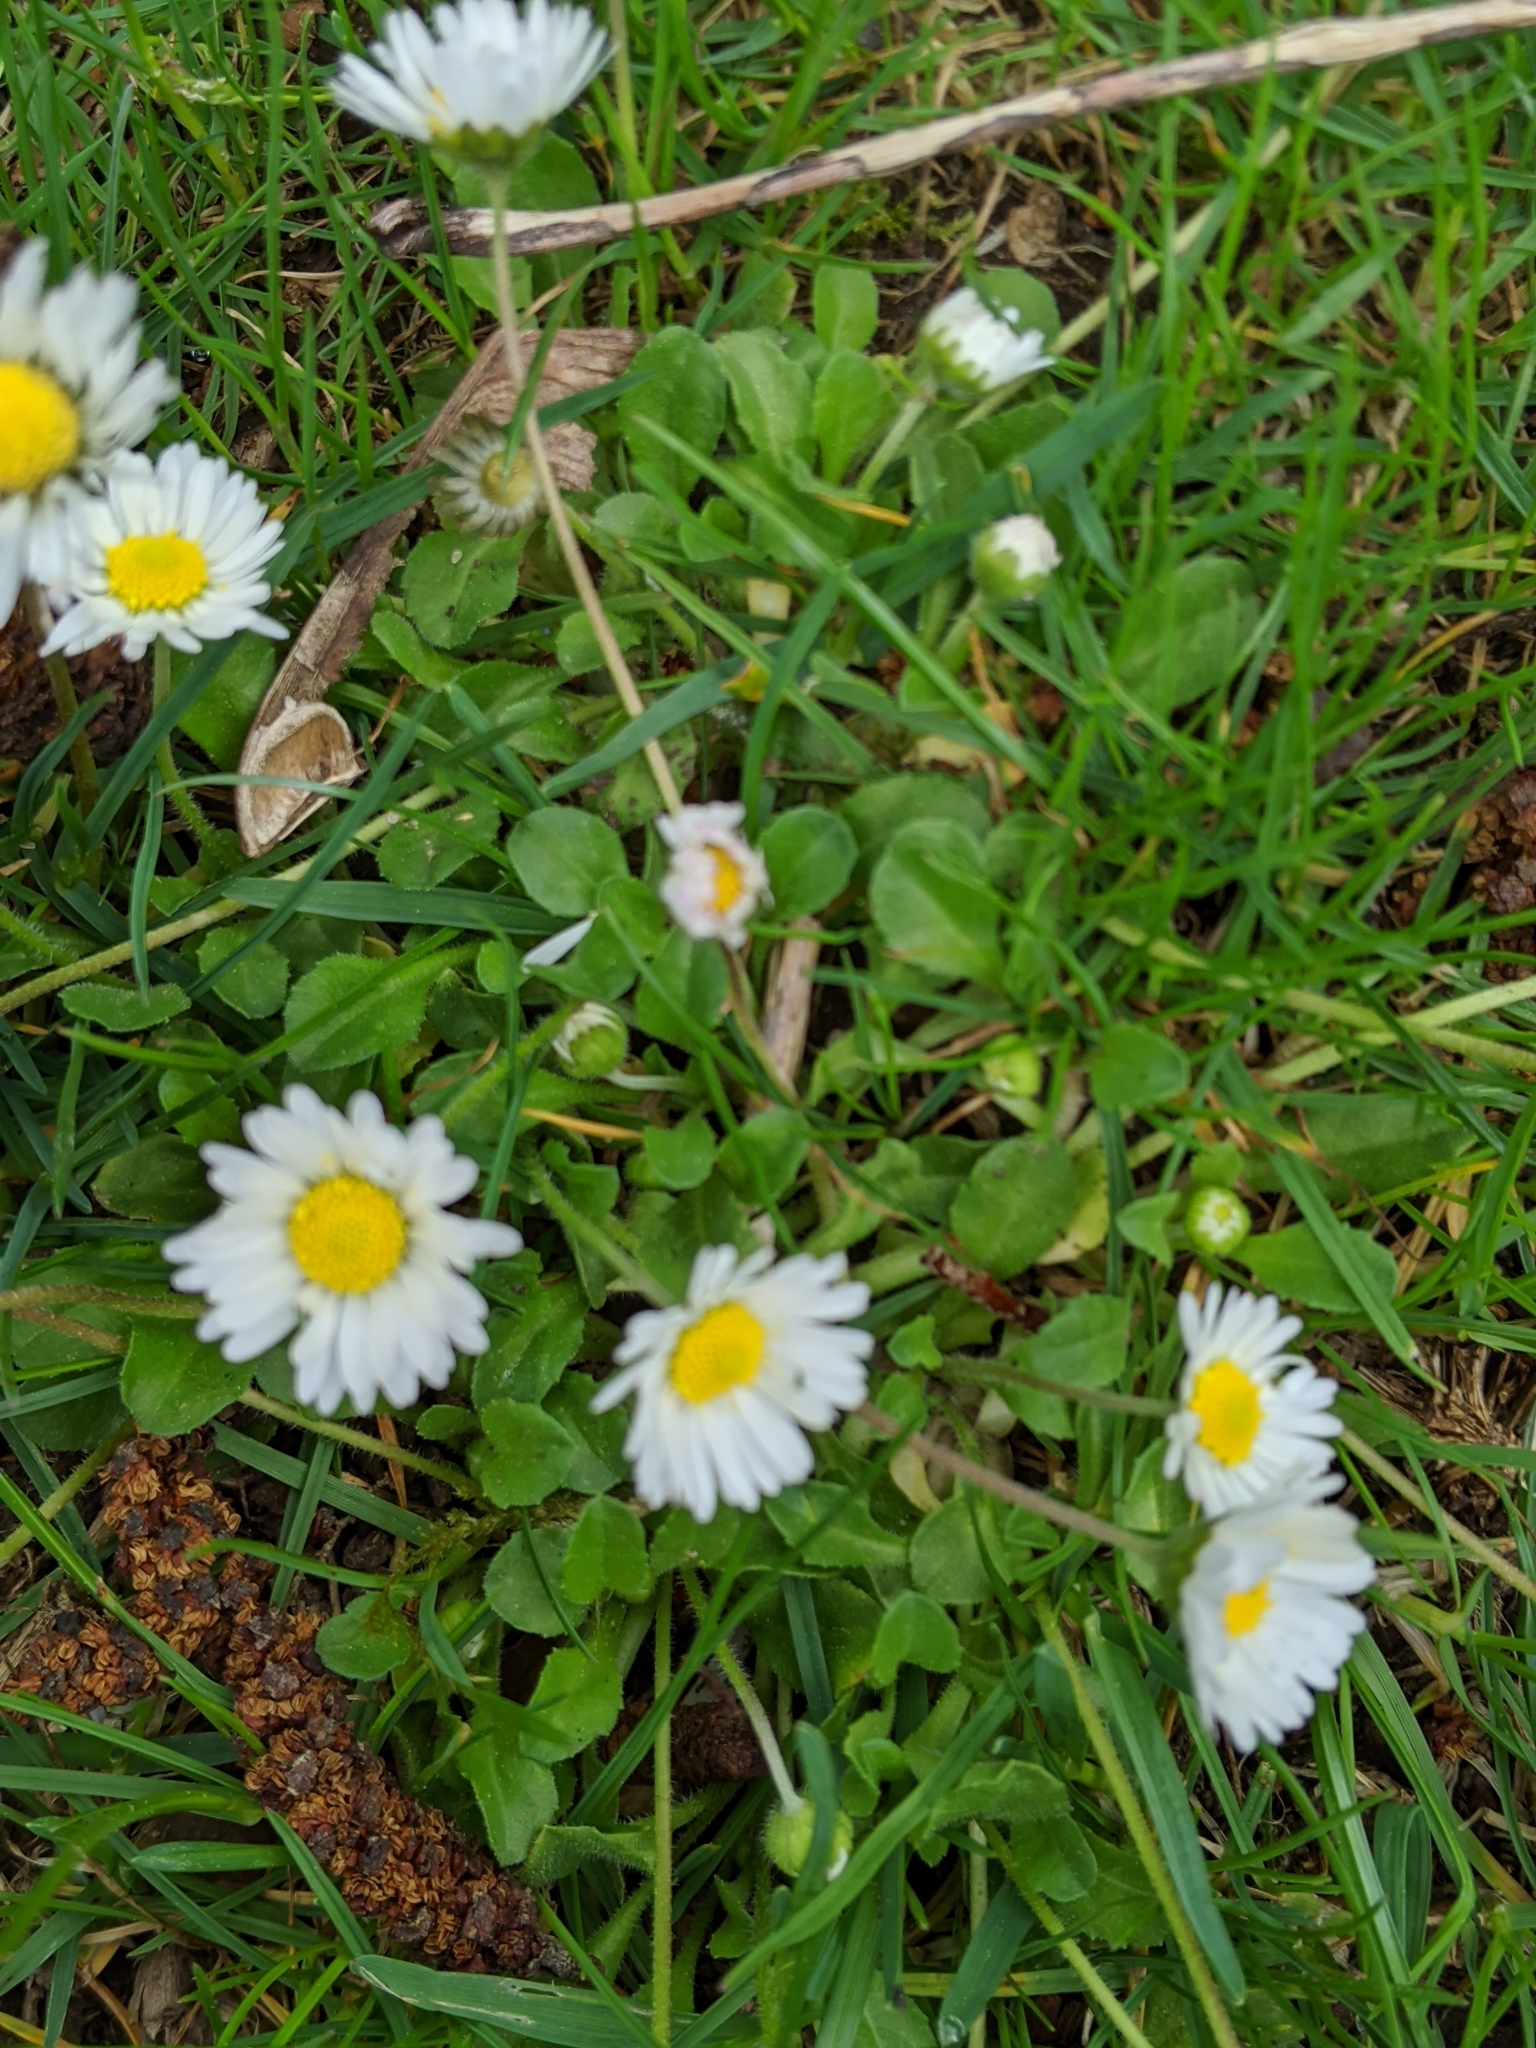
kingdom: Plantae
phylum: Tracheophyta
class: Magnoliopsida
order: Asterales
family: Asteraceae
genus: Bellis
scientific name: Bellis perennis
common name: Lawndaisy
